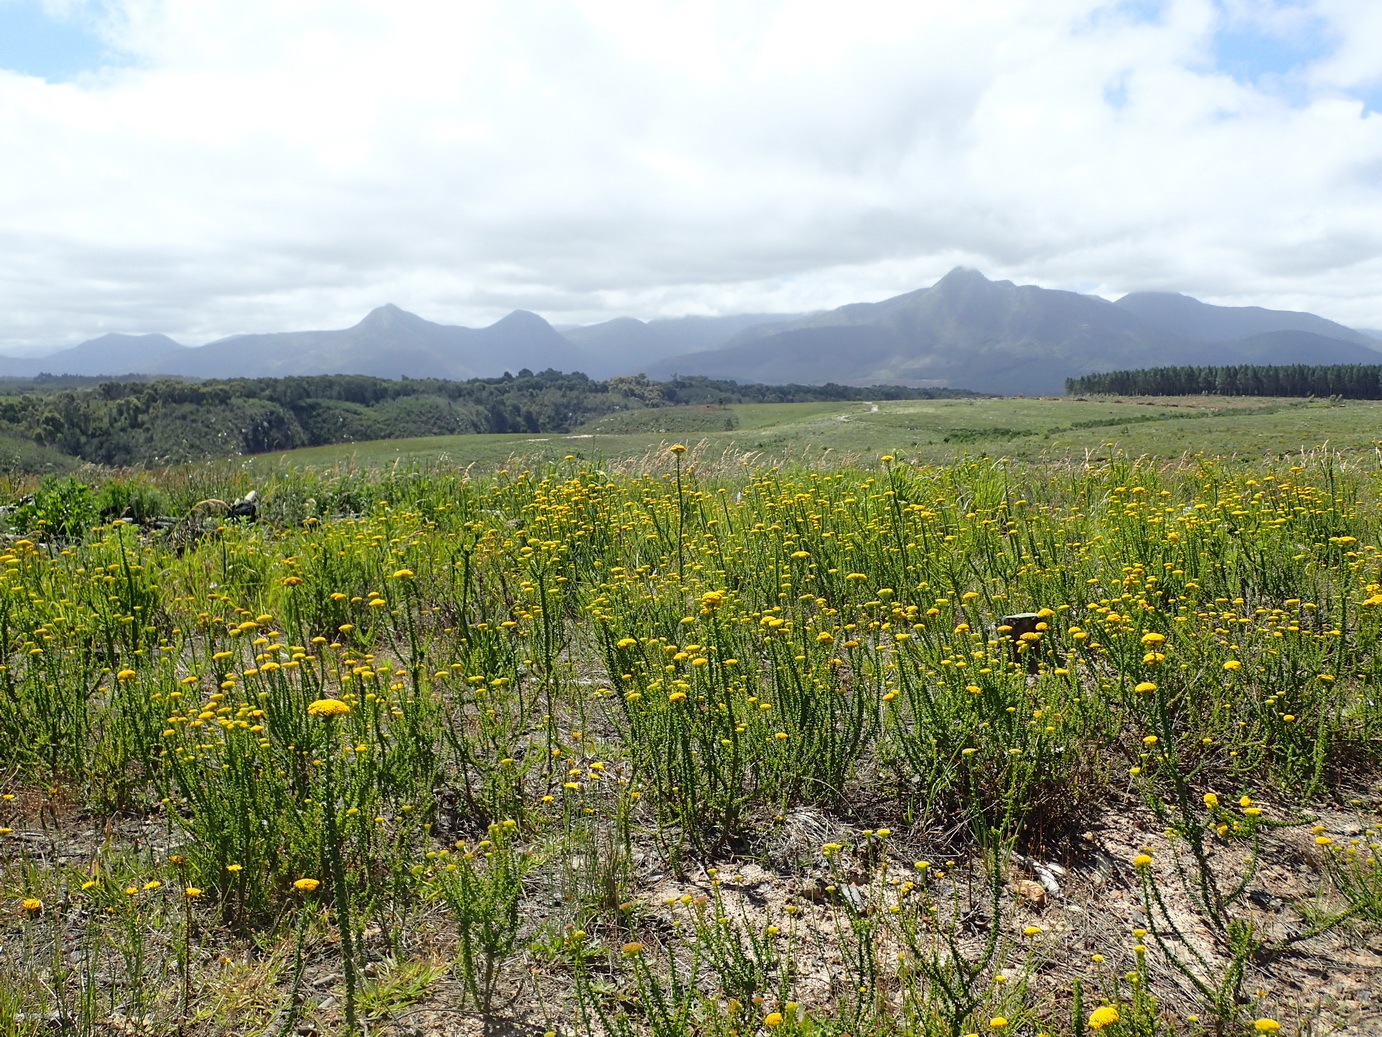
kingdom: Plantae
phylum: Tracheophyta
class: Magnoliopsida
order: Asterales
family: Asteraceae
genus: Athanasia
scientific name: Athanasia dentata
